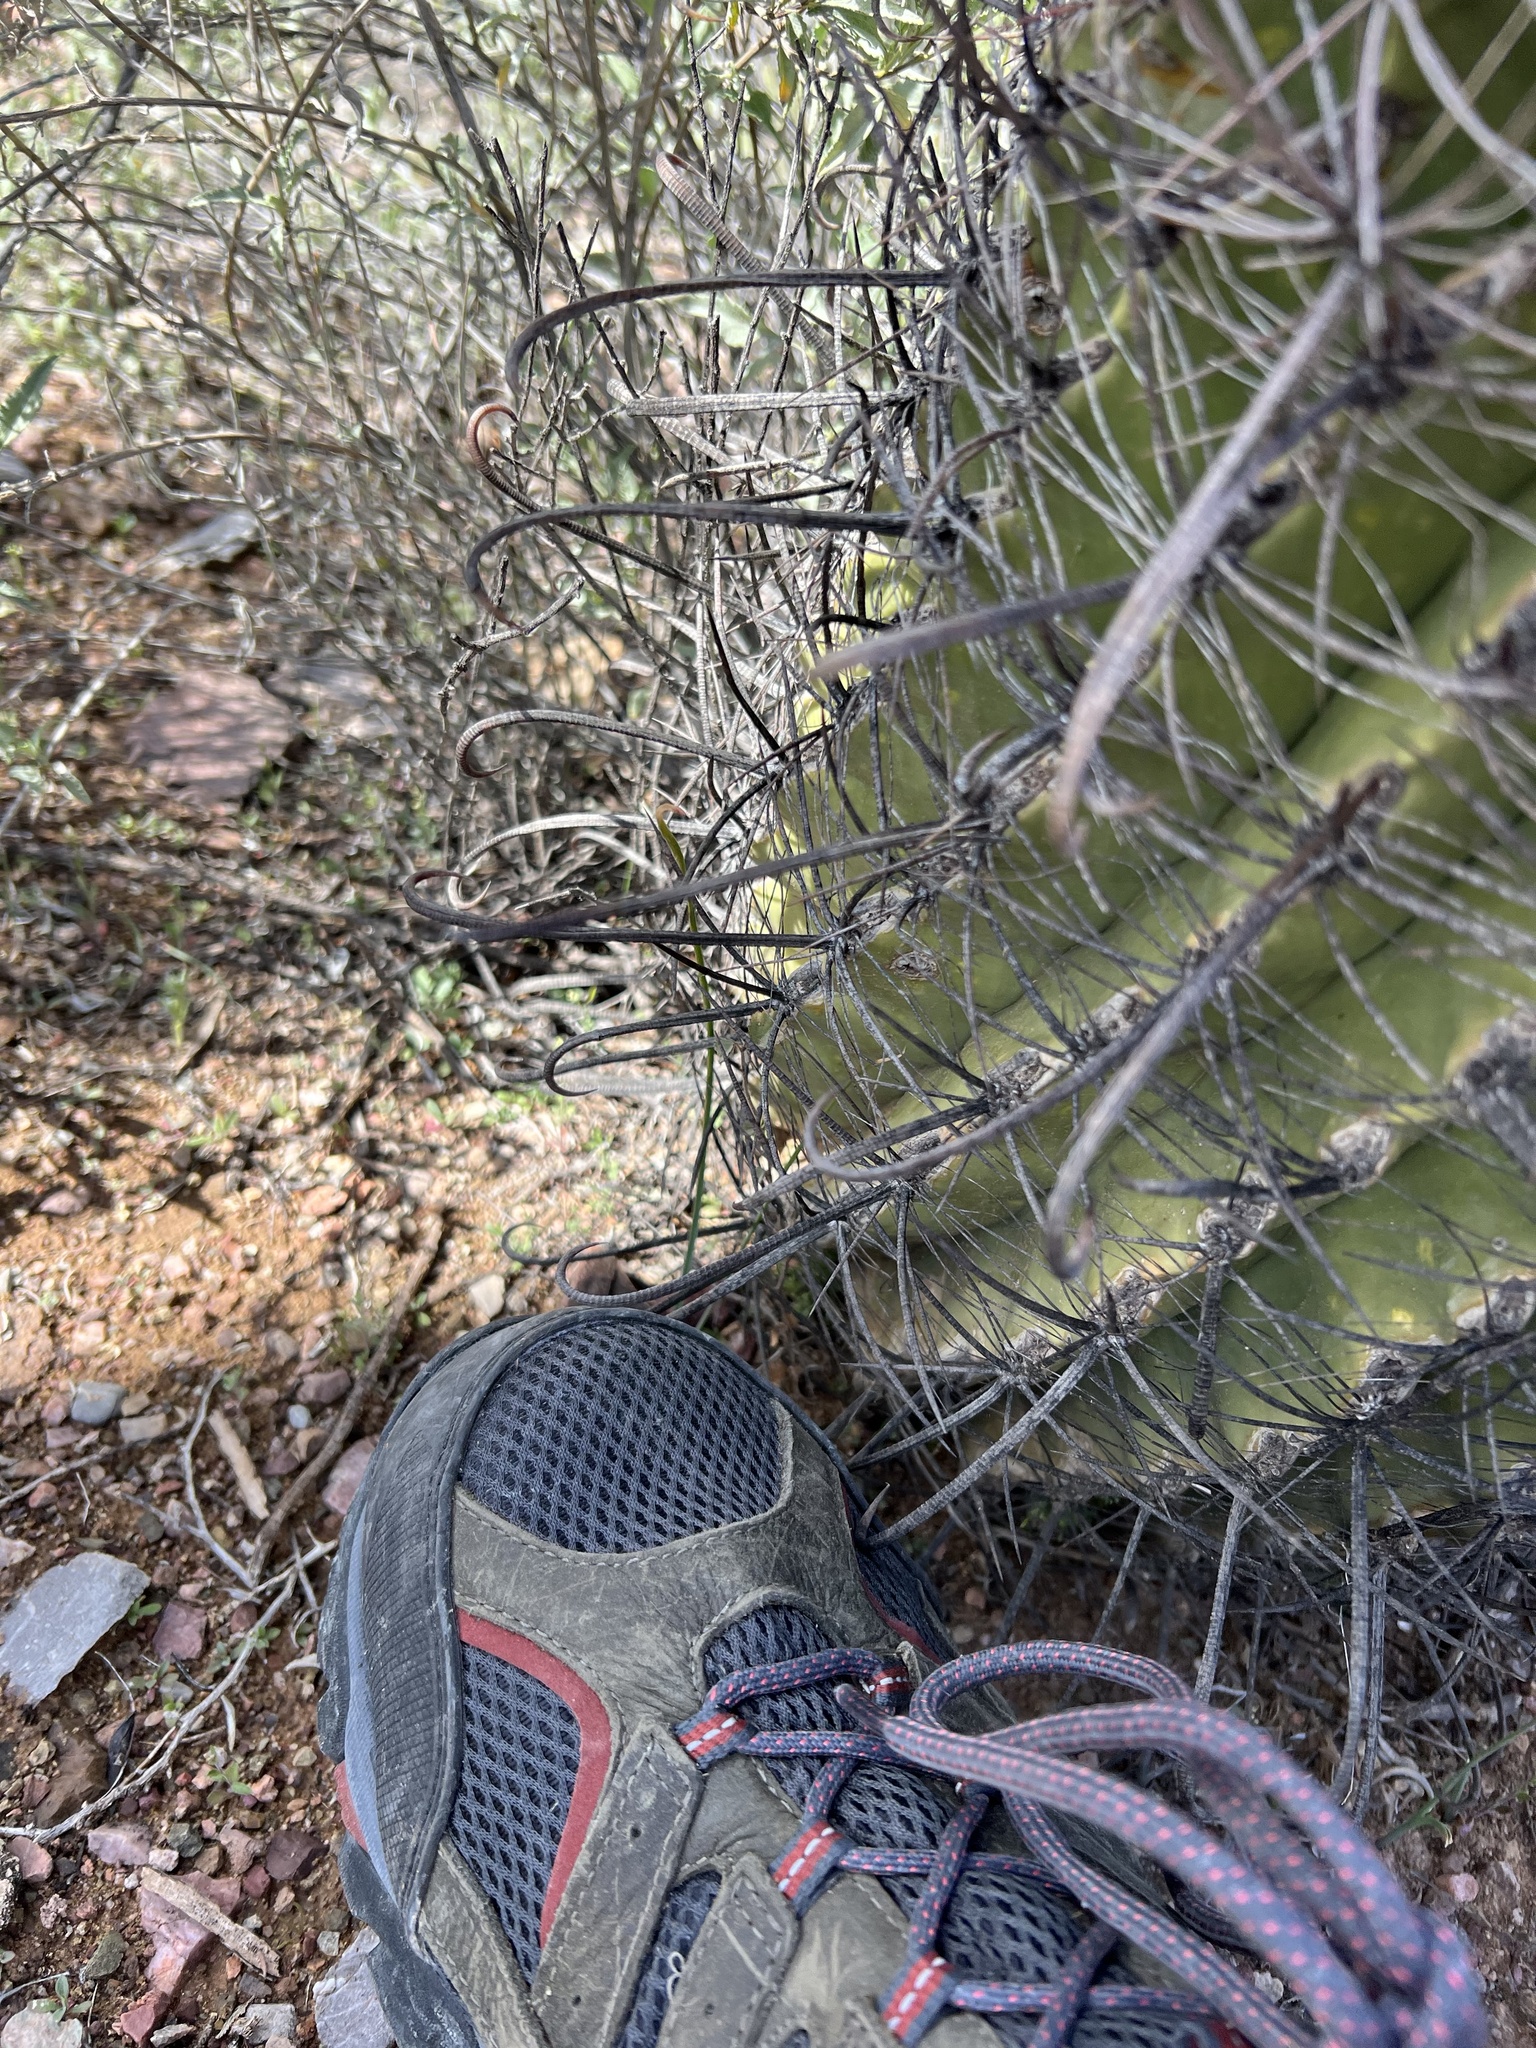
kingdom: Plantae
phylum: Tracheophyta
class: Magnoliopsida
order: Caryophyllales
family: Cactaceae
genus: Ferocactus
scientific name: Ferocactus wislizeni
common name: Candy barrel cactus
